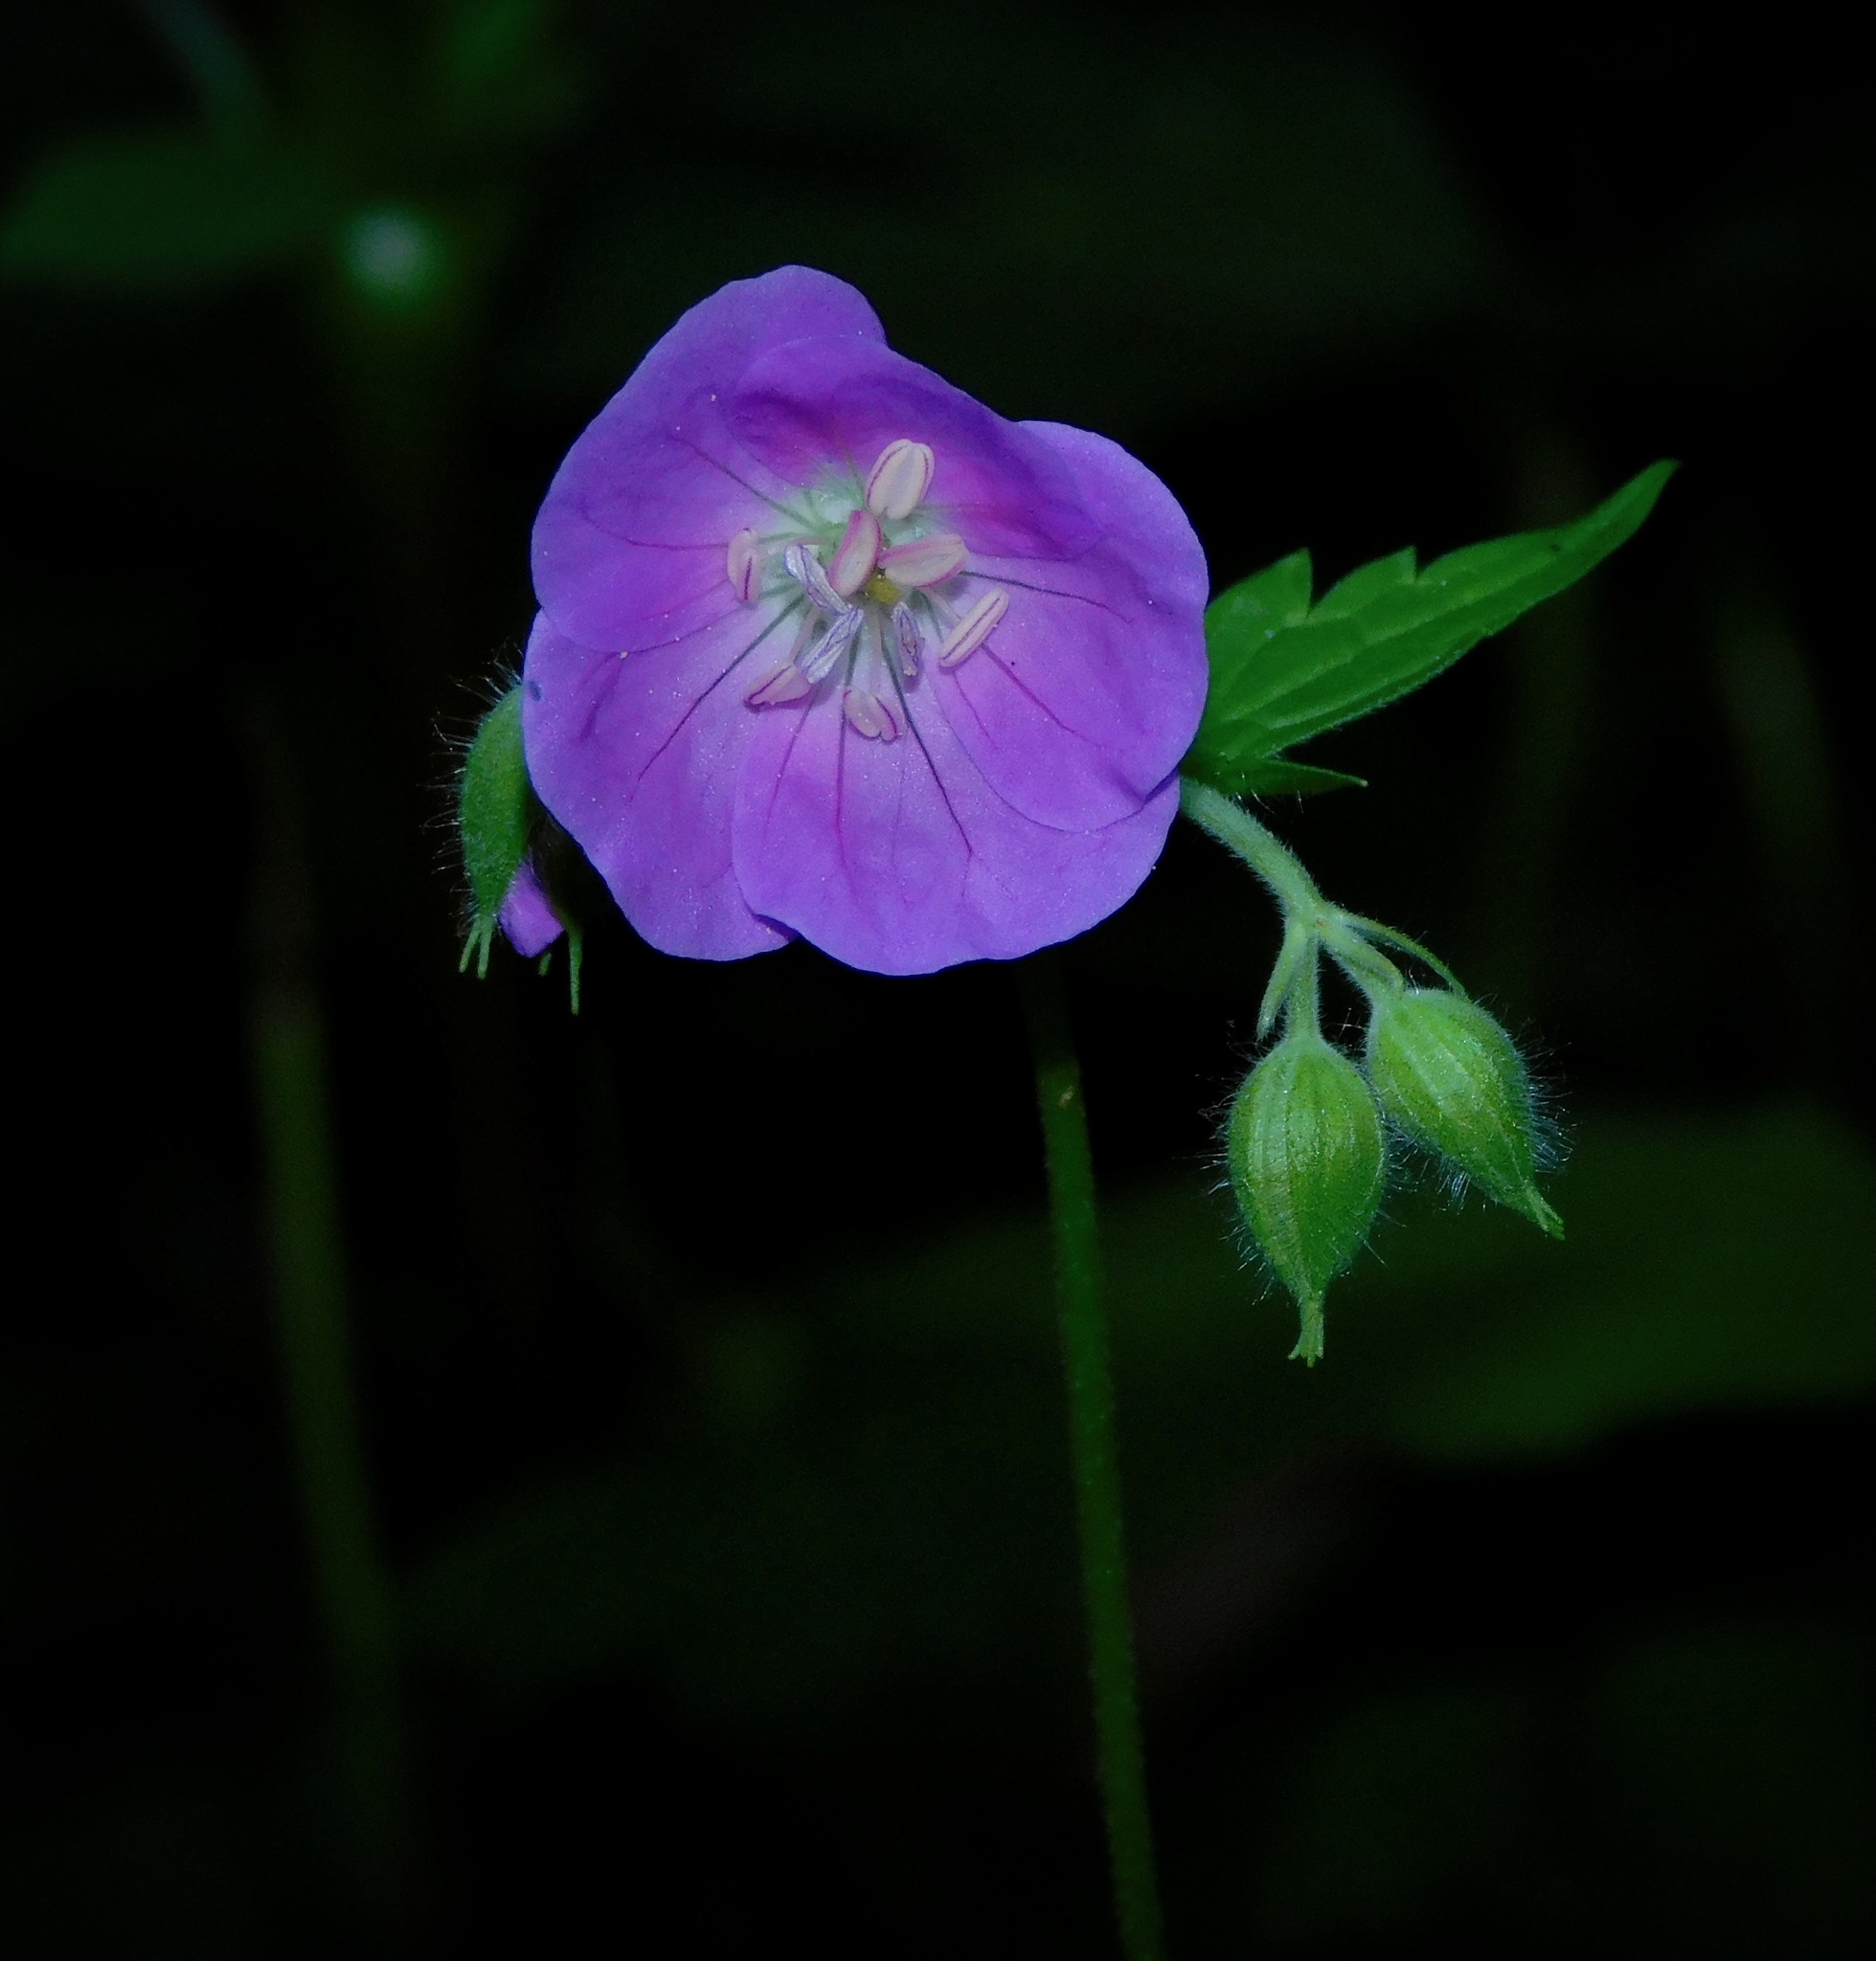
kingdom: Plantae
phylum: Tracheophyta
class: Magnoliopsida
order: Geraniales
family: Geraniaceae
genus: Geranium
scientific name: Geranium maculatum
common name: Spotted geranium
